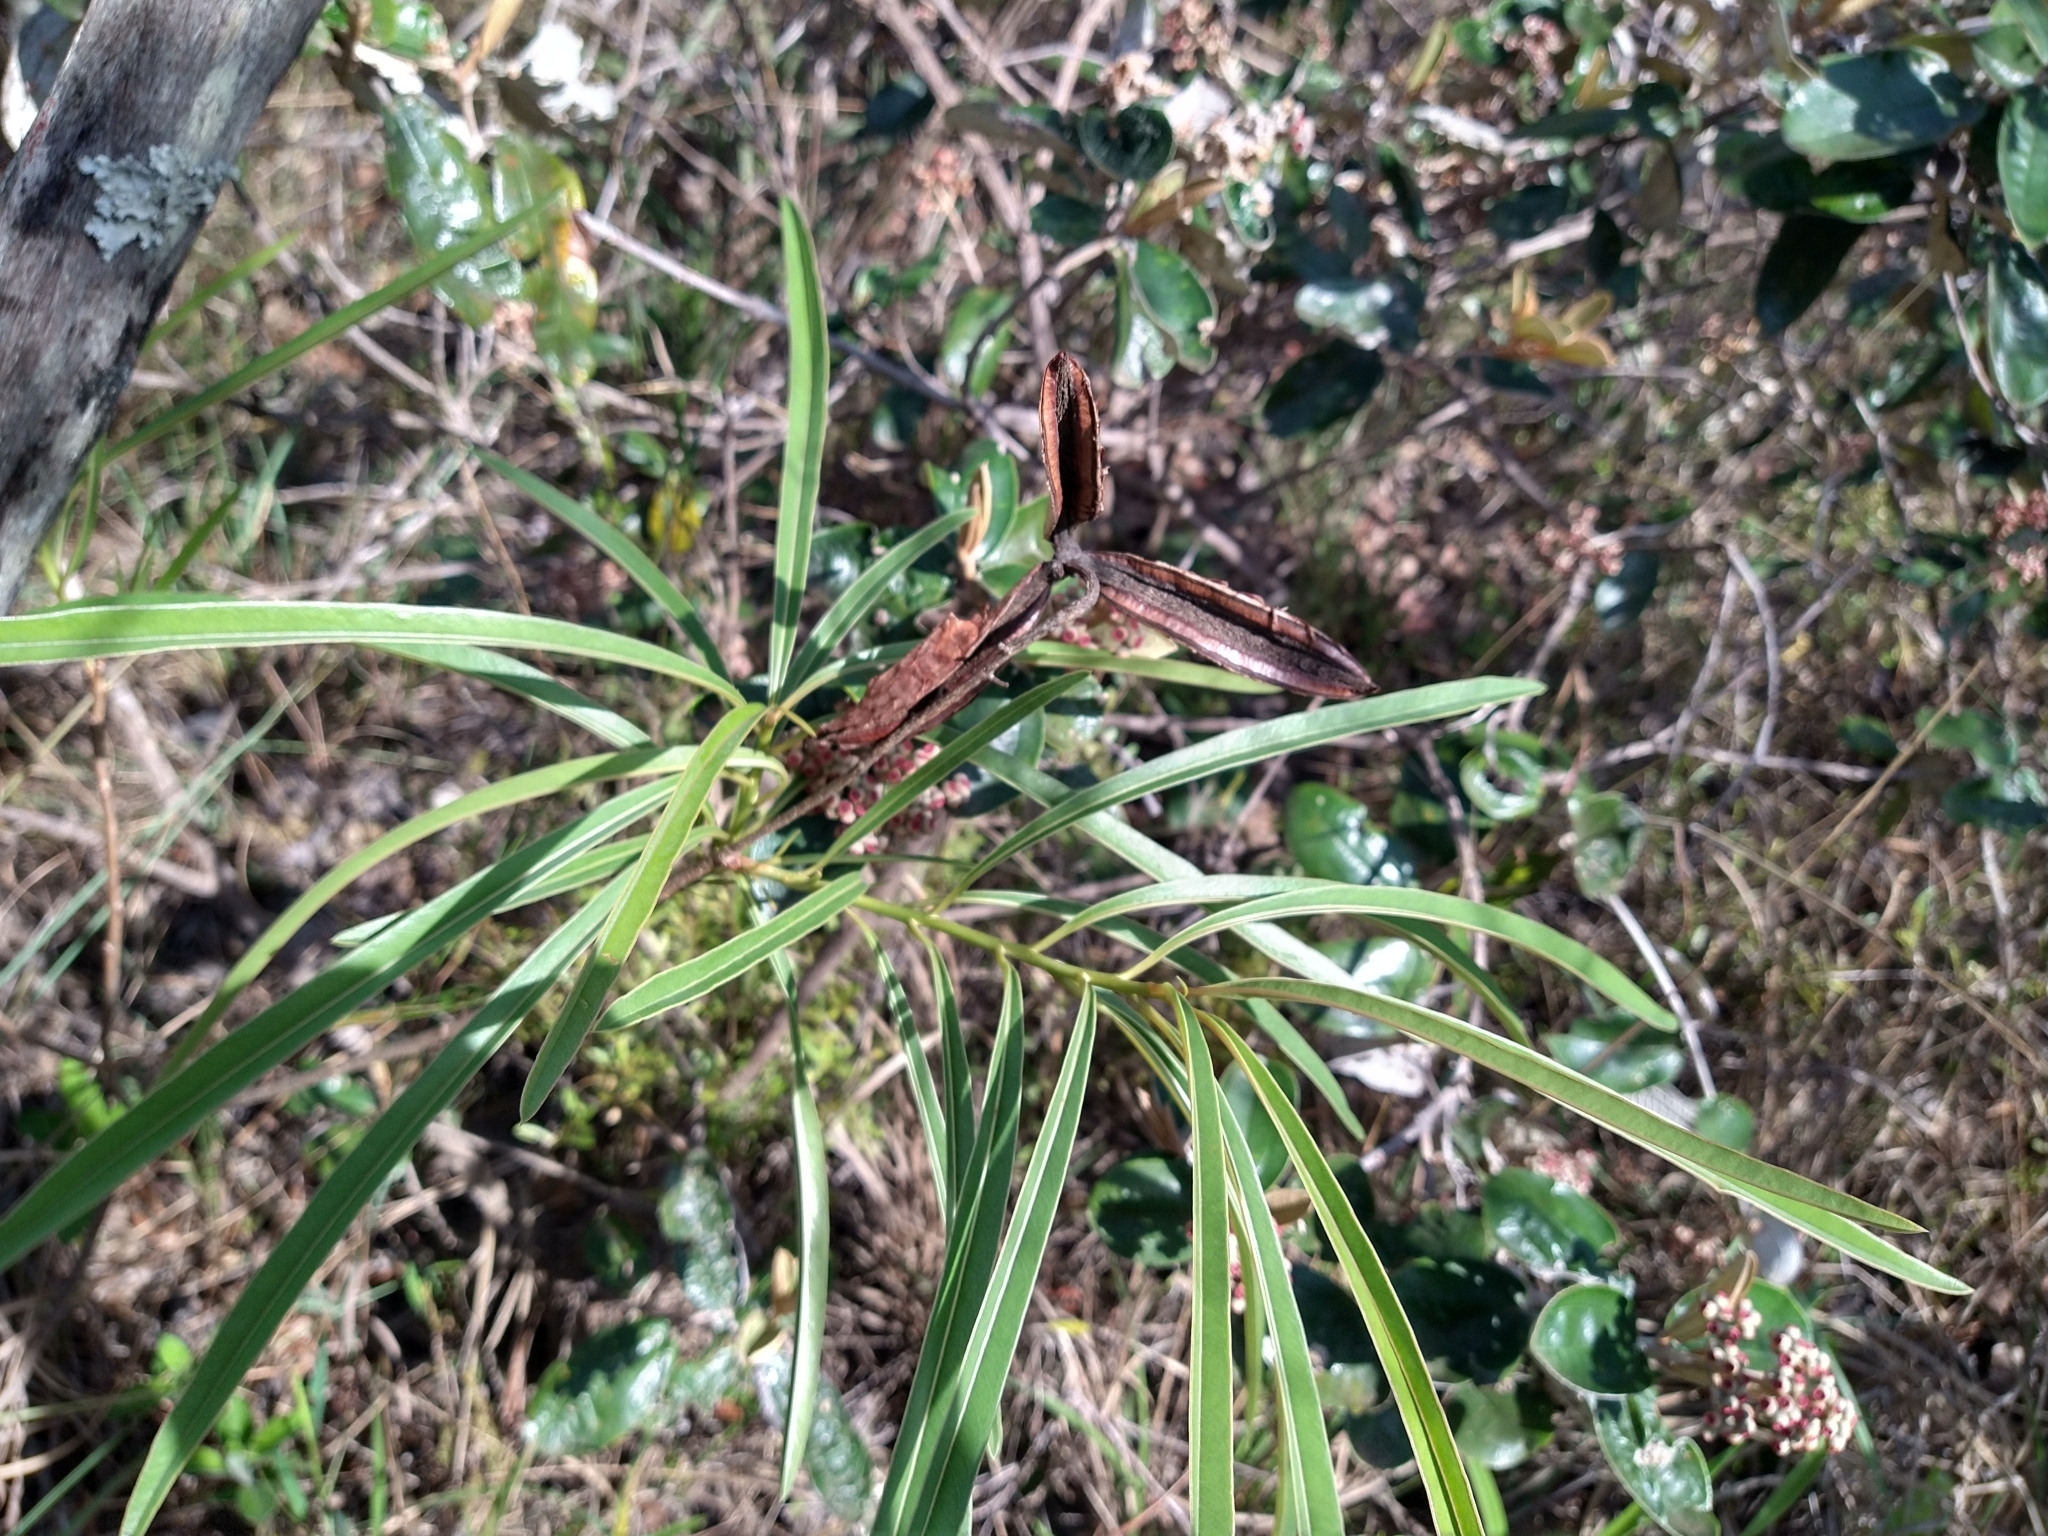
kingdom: Plantae
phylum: Tracheophyta
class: Magnoliopsida
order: Malpighiales
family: Calophyllaceae
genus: Kielmeyera
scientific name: Kielmeyera abdita
